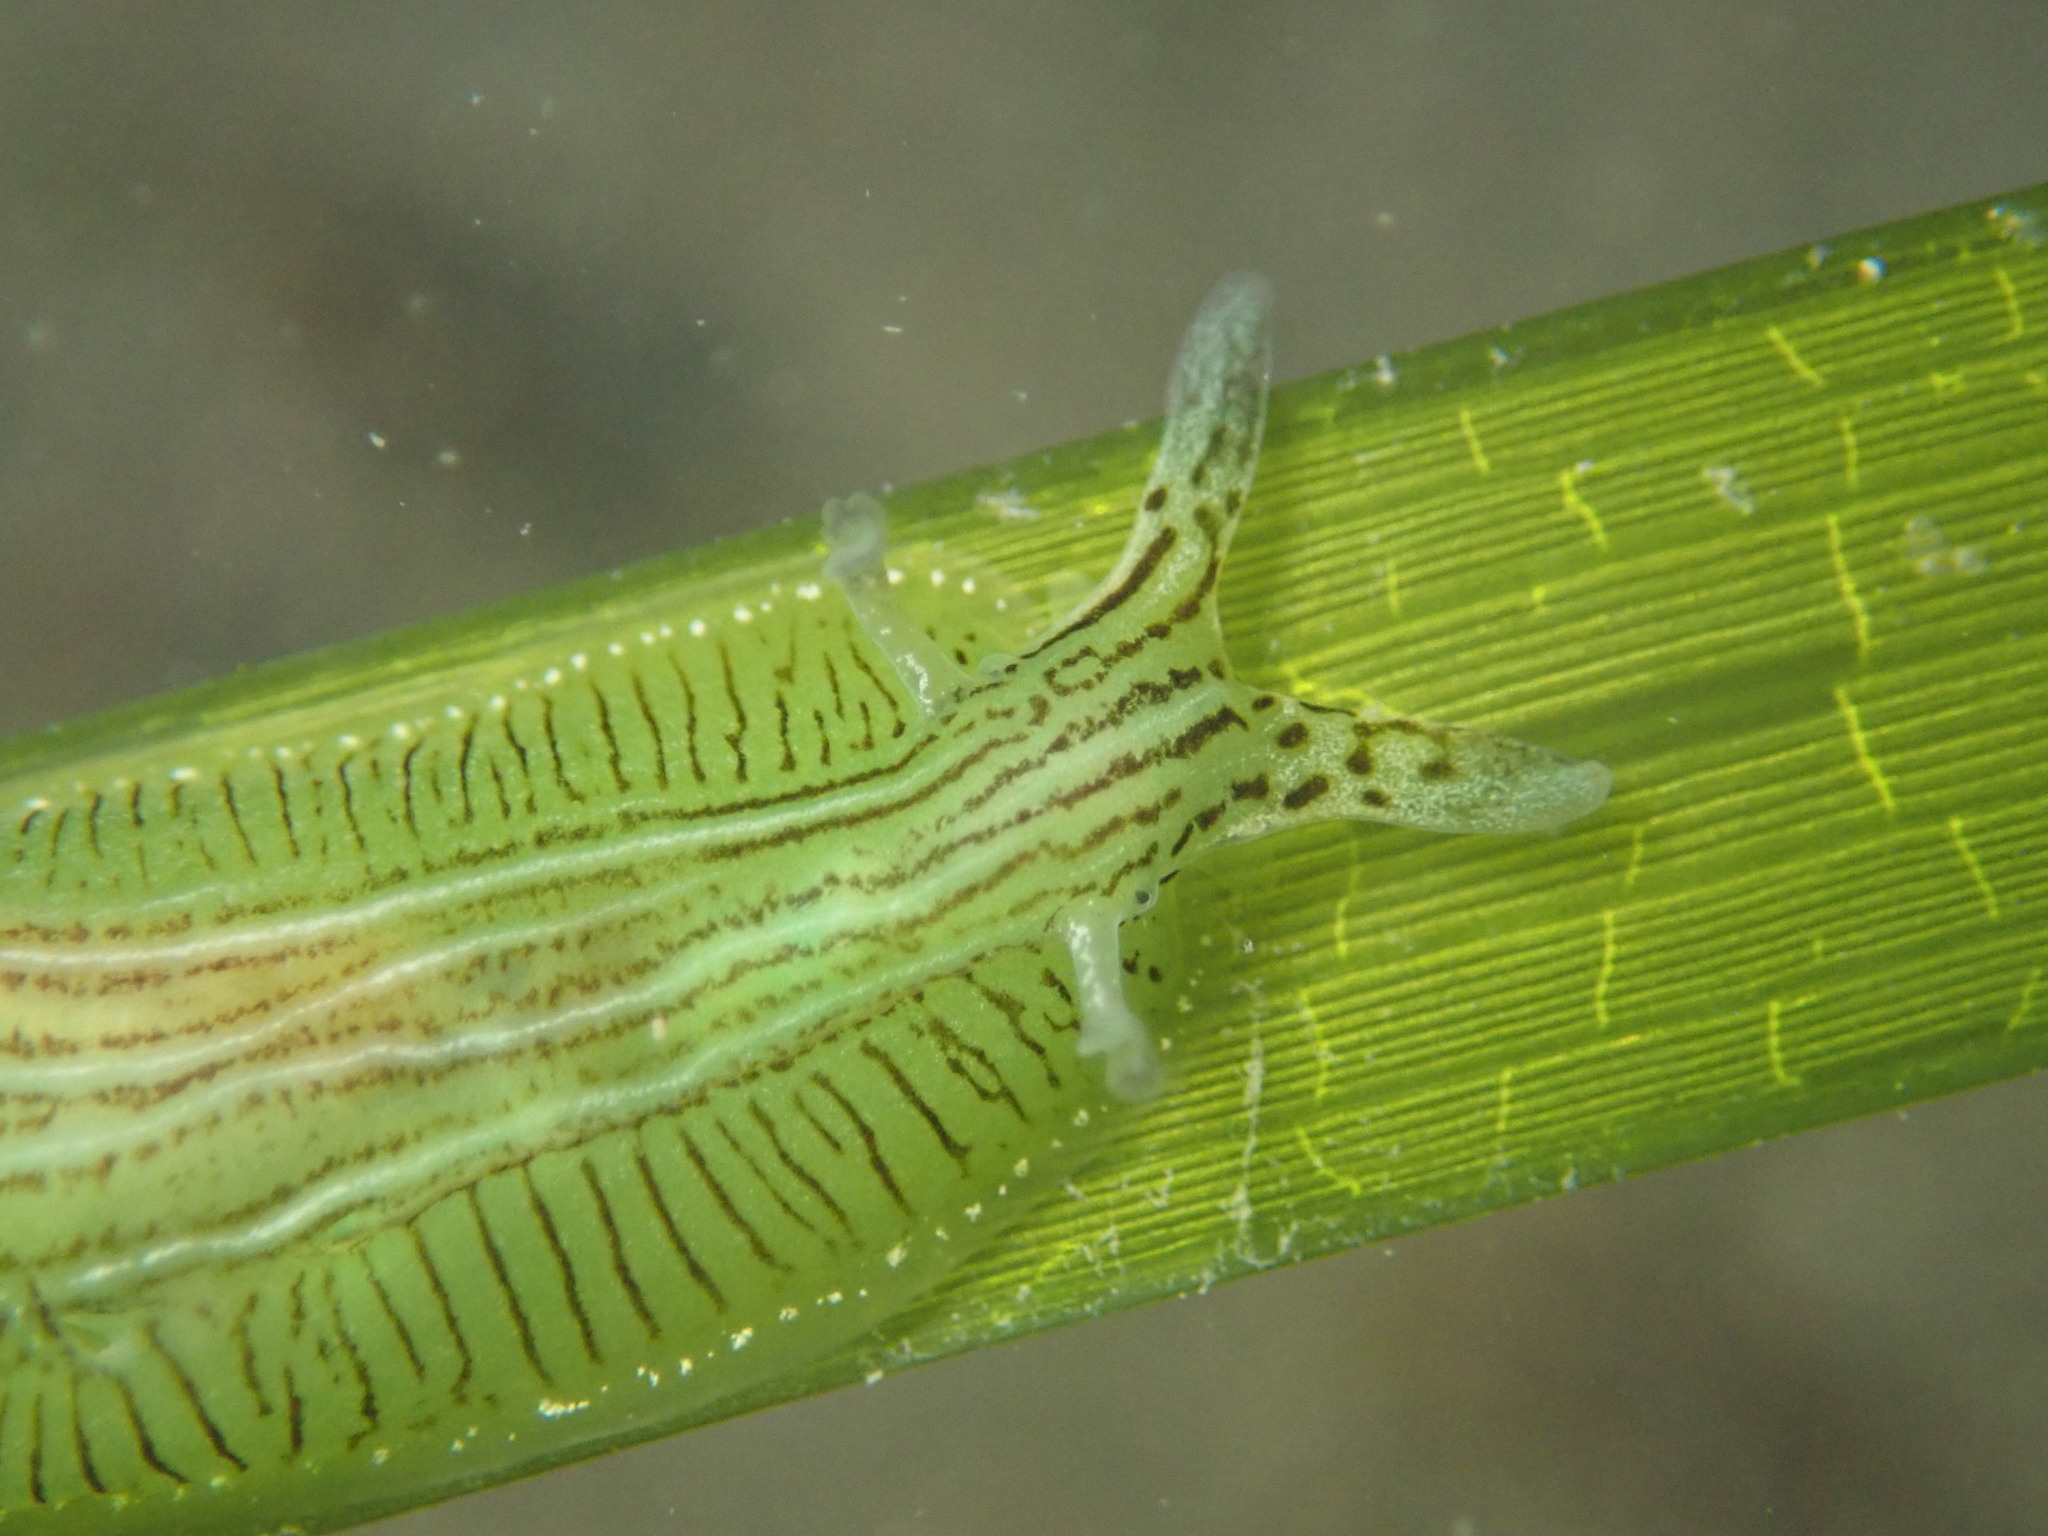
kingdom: Animalia
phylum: Mollusca
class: Gastropoda
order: Aplysiida
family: Aplysiidae
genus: Phyllaplysia
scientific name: Phyllaplysia taylori
